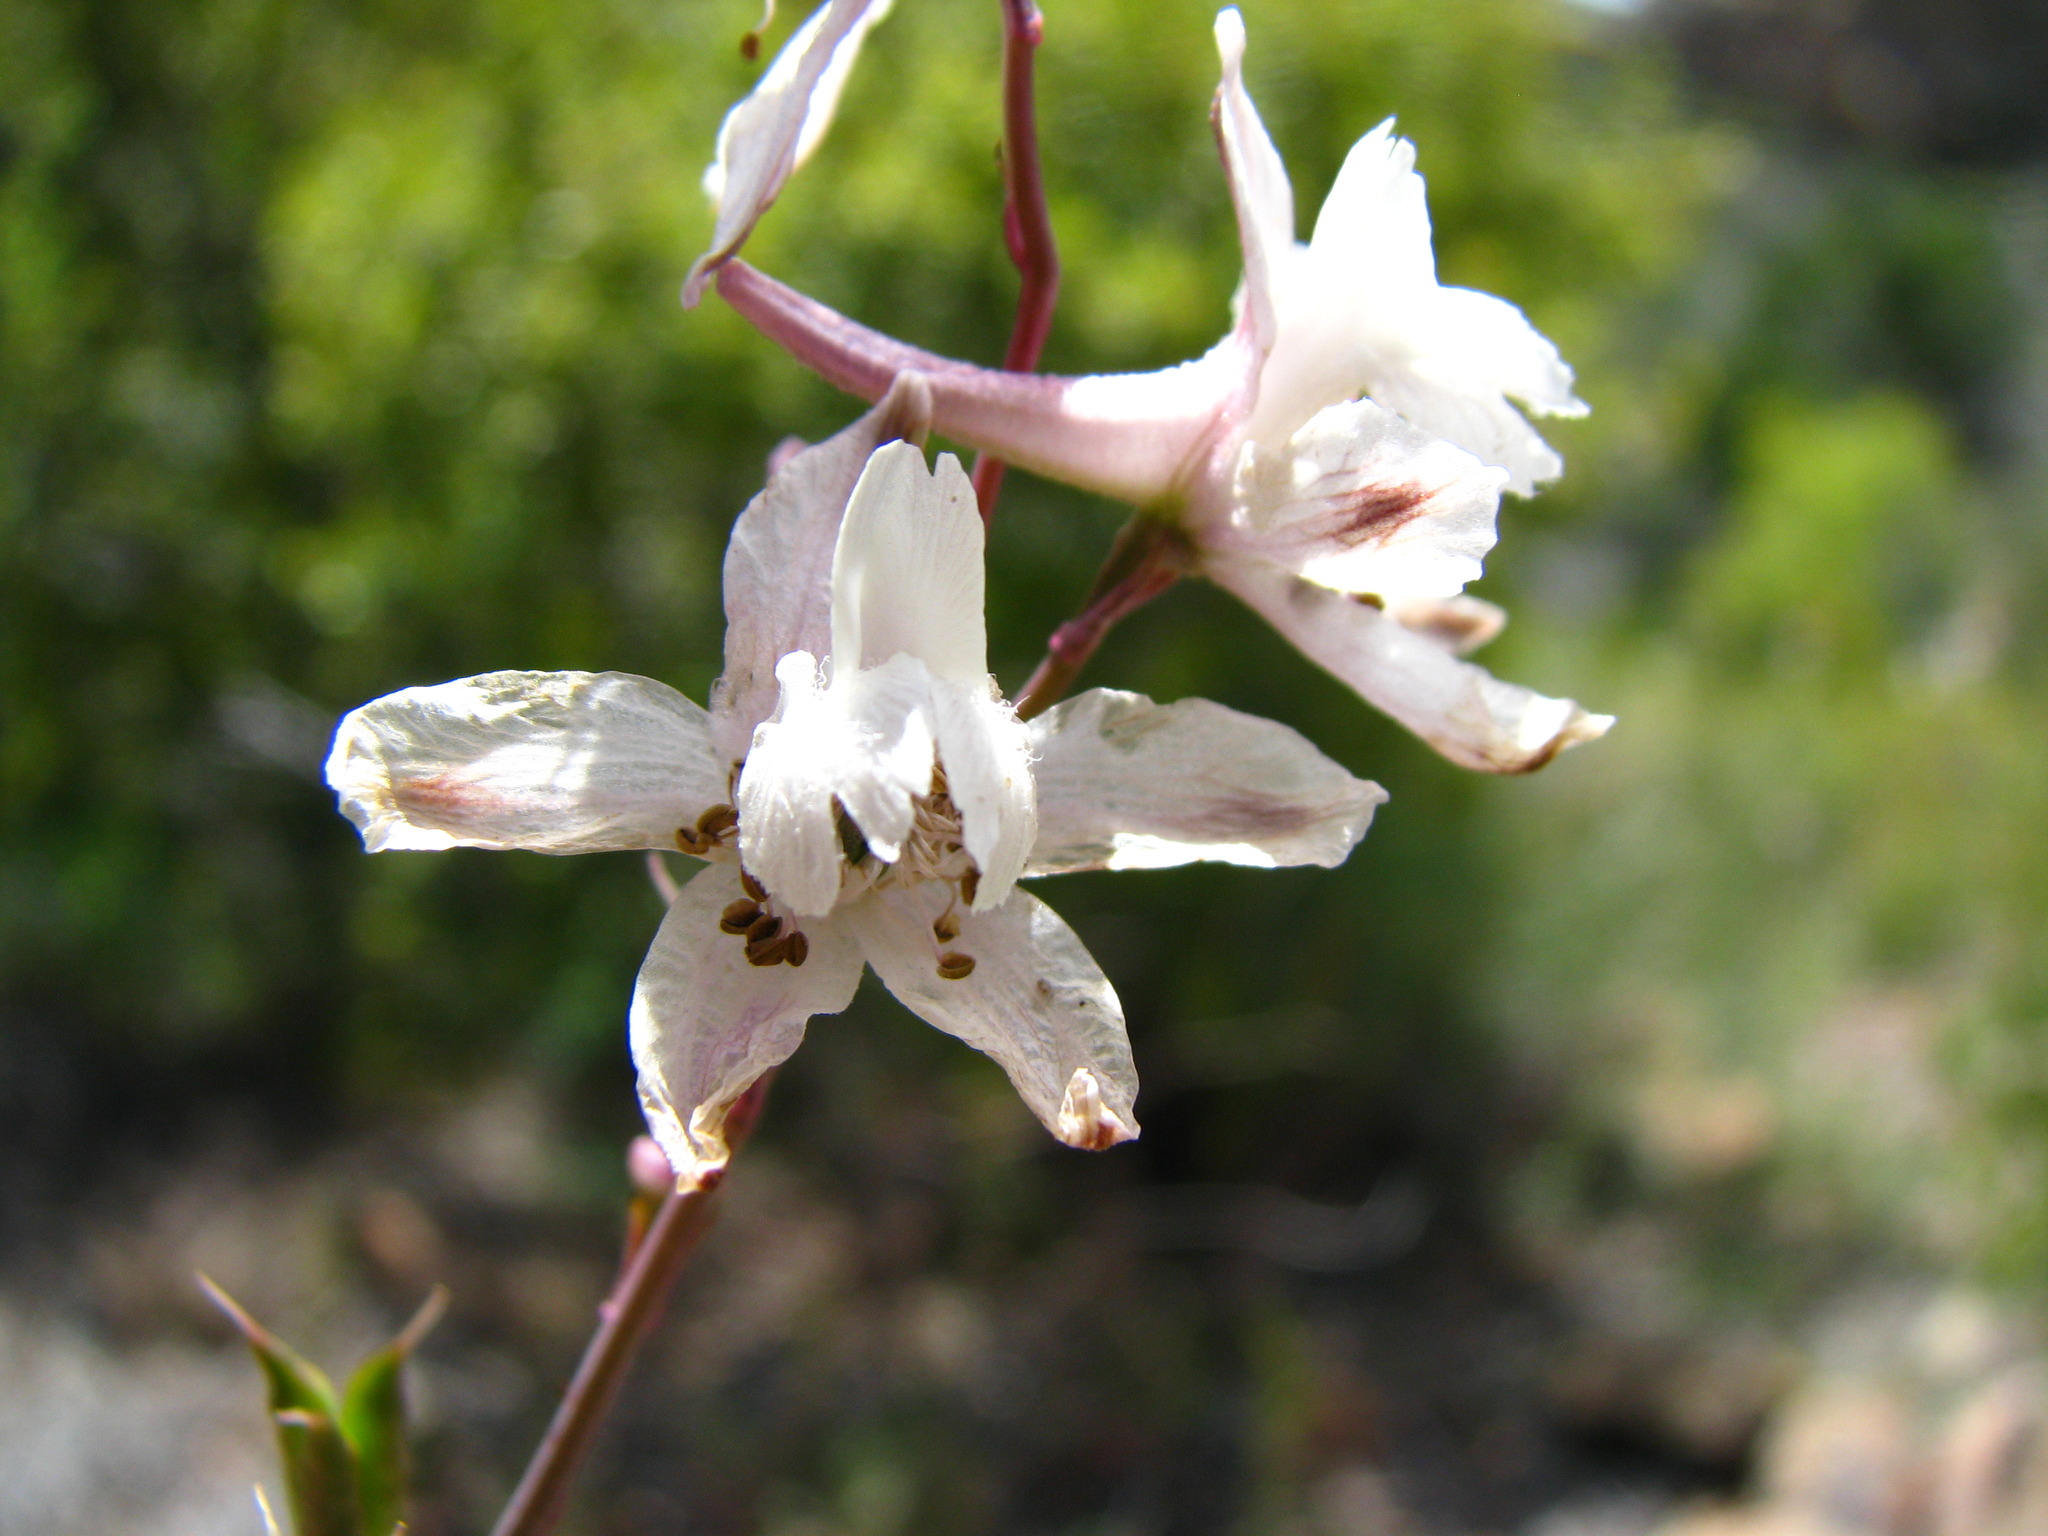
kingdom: Plantae
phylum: Tracheophyta
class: Magnoliopsida
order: Ranunculales
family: Ranunculaceae
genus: Delphinium
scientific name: Delphinium parishii
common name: Apache larkspur
